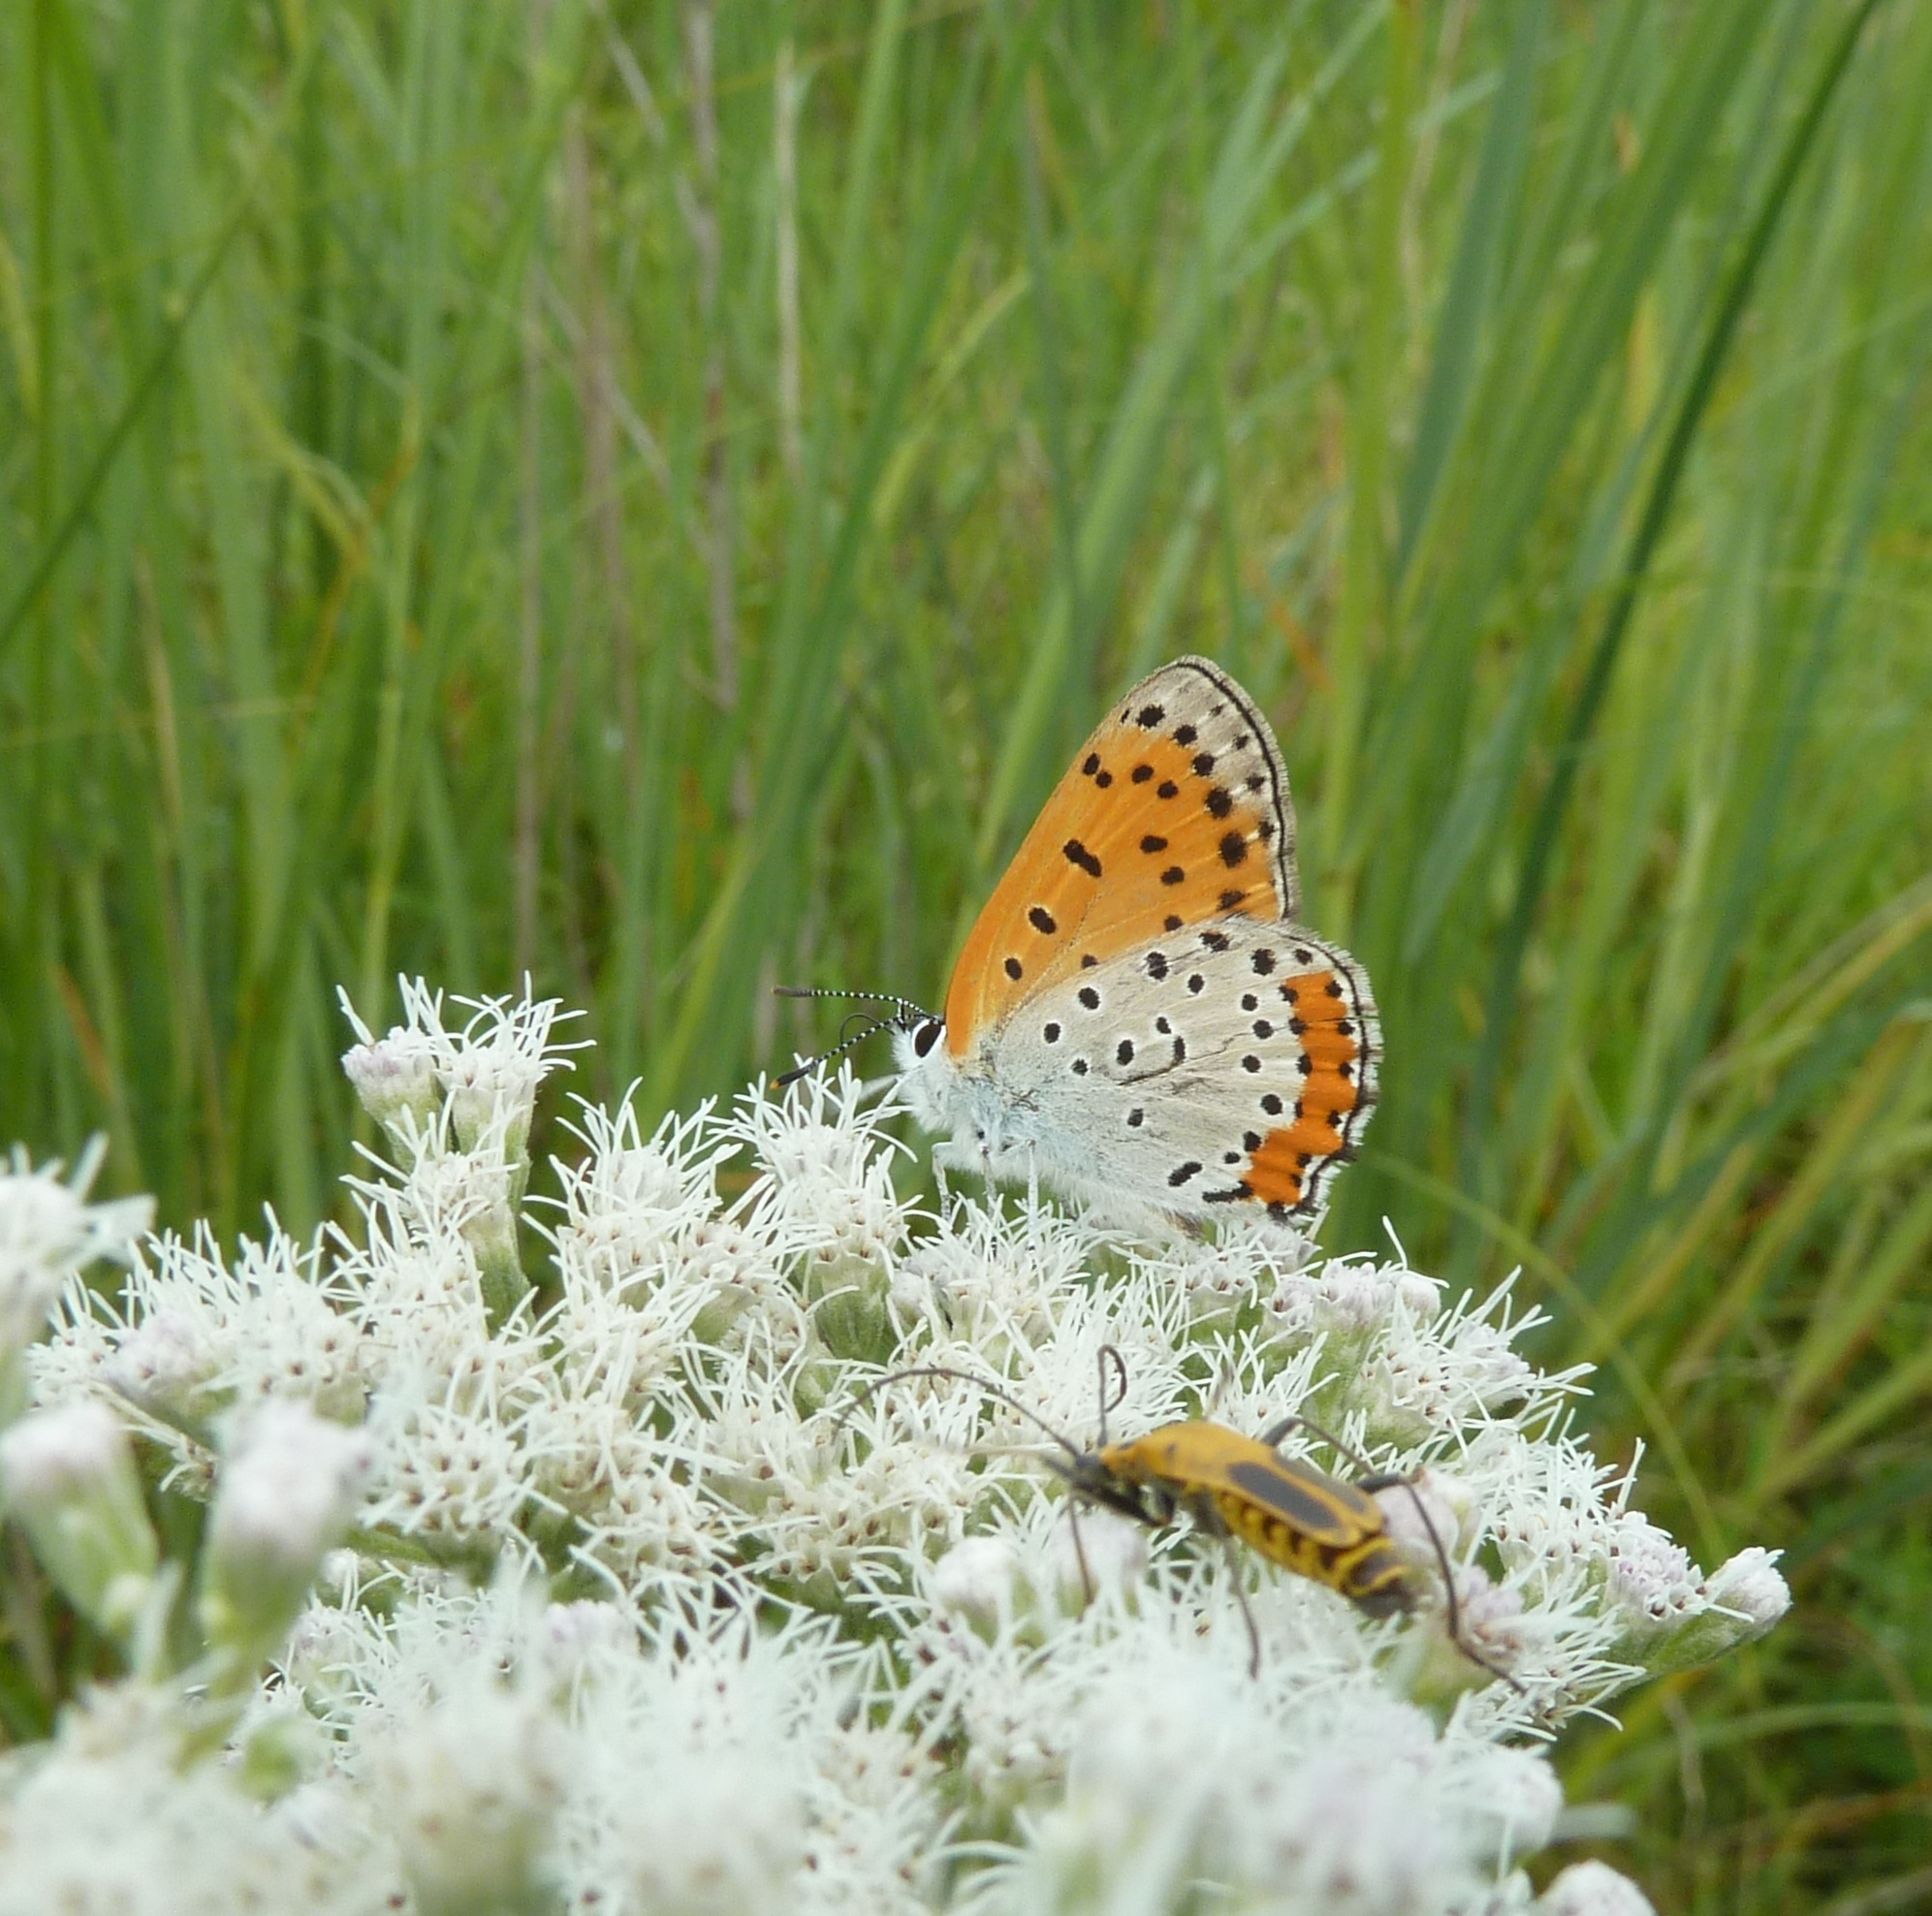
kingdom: Animalia
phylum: Arthropoda
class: Insecta
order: Lepidoptera
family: Lycaenidae
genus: Tharsalea
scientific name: Tharsalea hyllus
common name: Bronze copper
